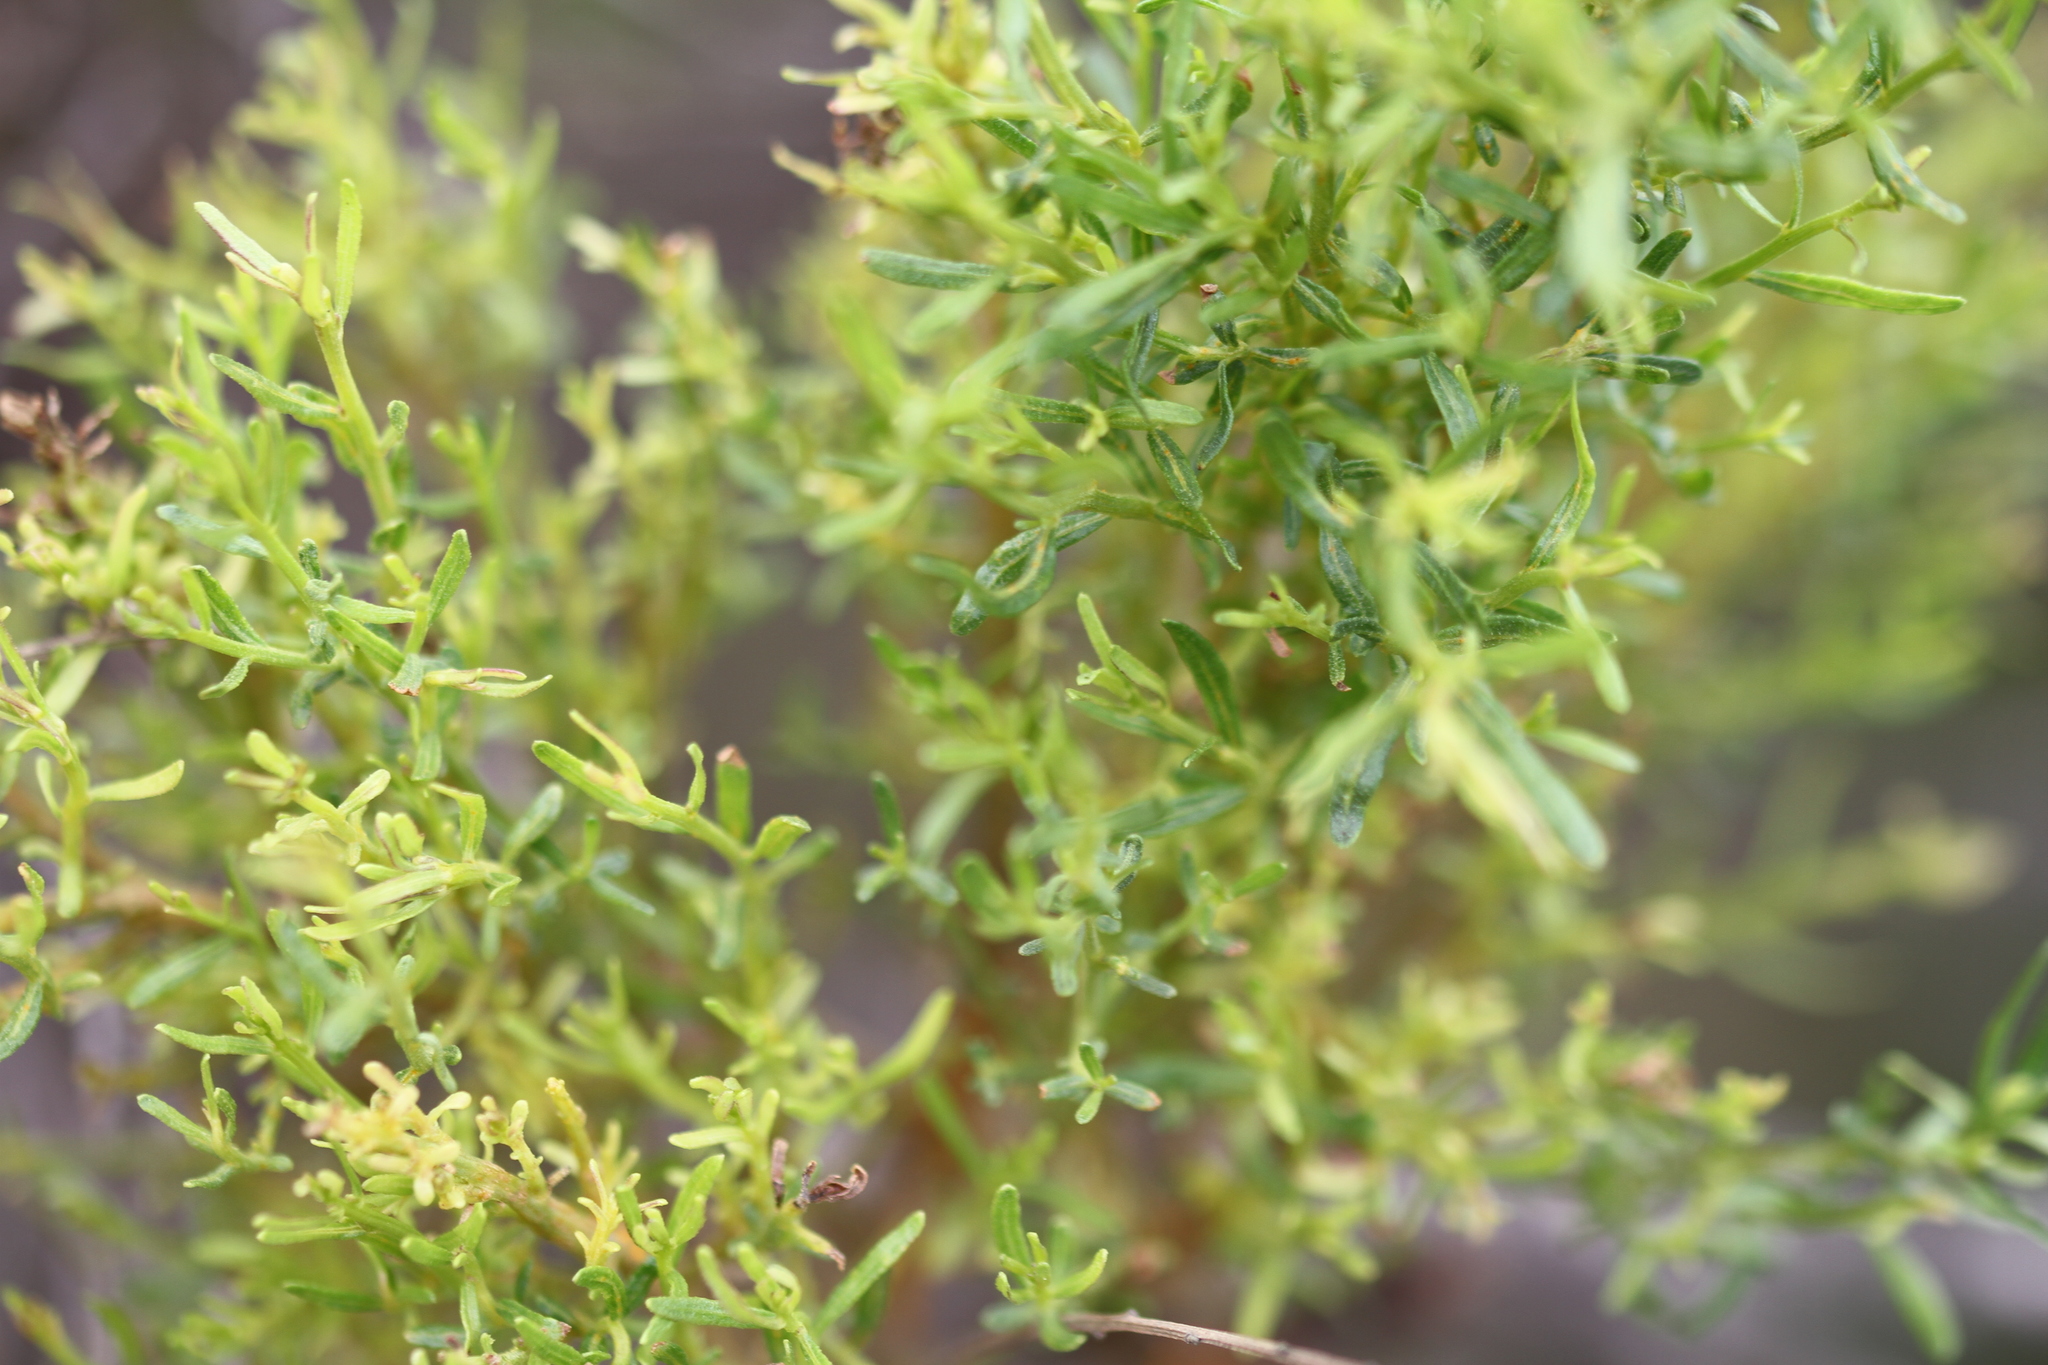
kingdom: Fungi
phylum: Basidiomycota
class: Pucciniomycetes
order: Pucciniales
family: Pucciniaceae
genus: Eriosporangium
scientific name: Eriosporangium evadens
